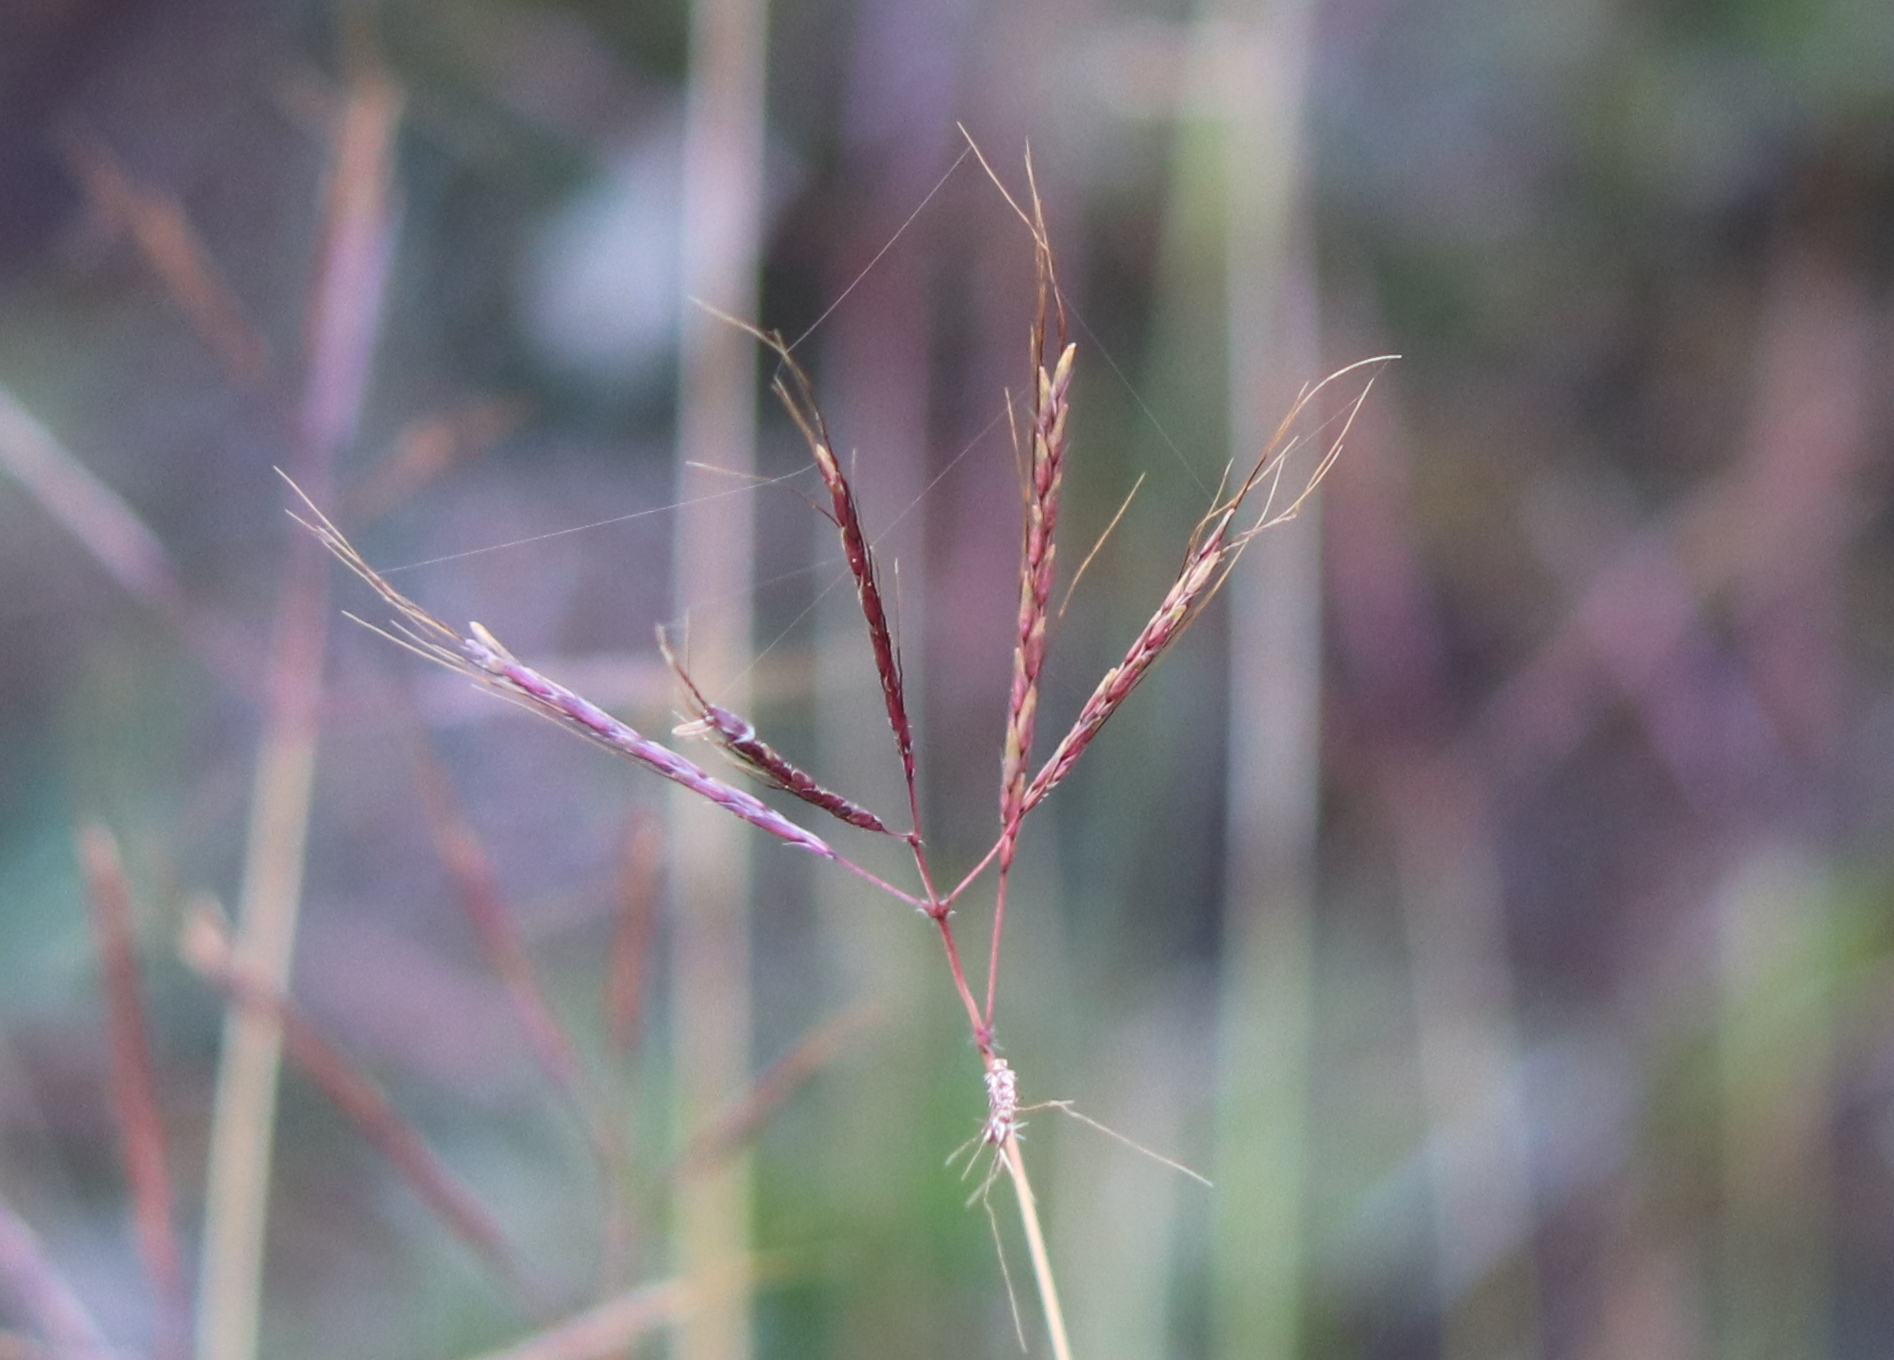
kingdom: Plantae
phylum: Tracheophyta
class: Liliopsida
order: Poales
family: Poaceae
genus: Bothriochloa
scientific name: Bothriochloa ischaemum
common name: Yellow bluestem
